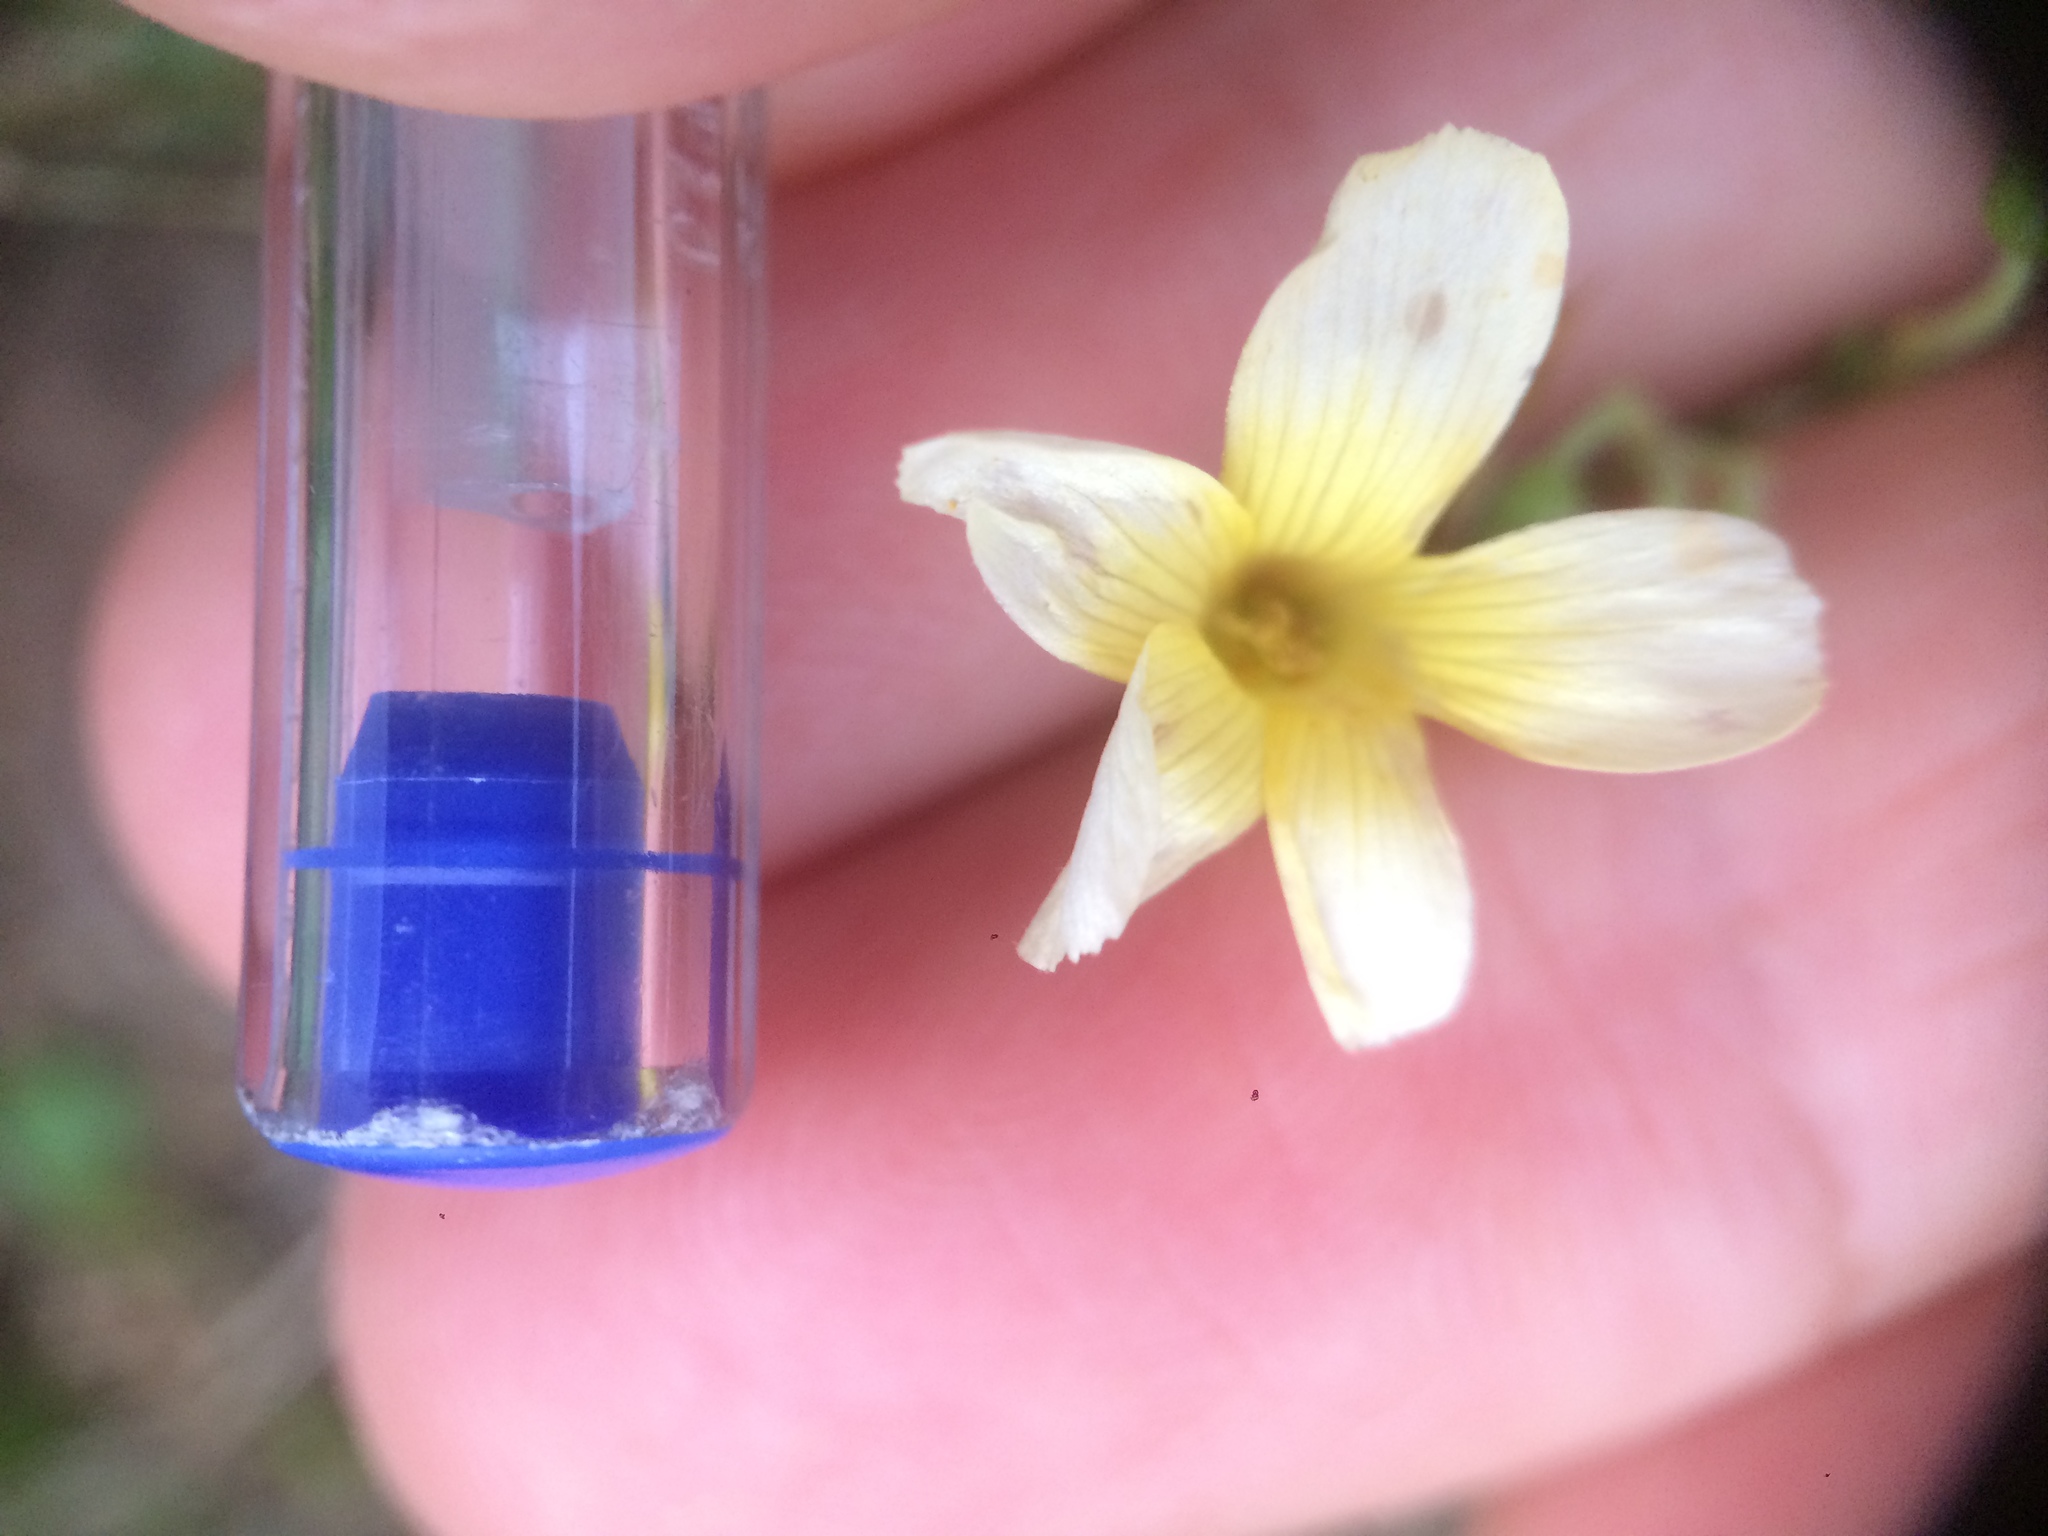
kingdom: Plantae
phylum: Tracheophyta
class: Magnoliopsida
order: Oxalidales
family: Oxalidaceae
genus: Oxalis
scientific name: Oxalis niederleinii
